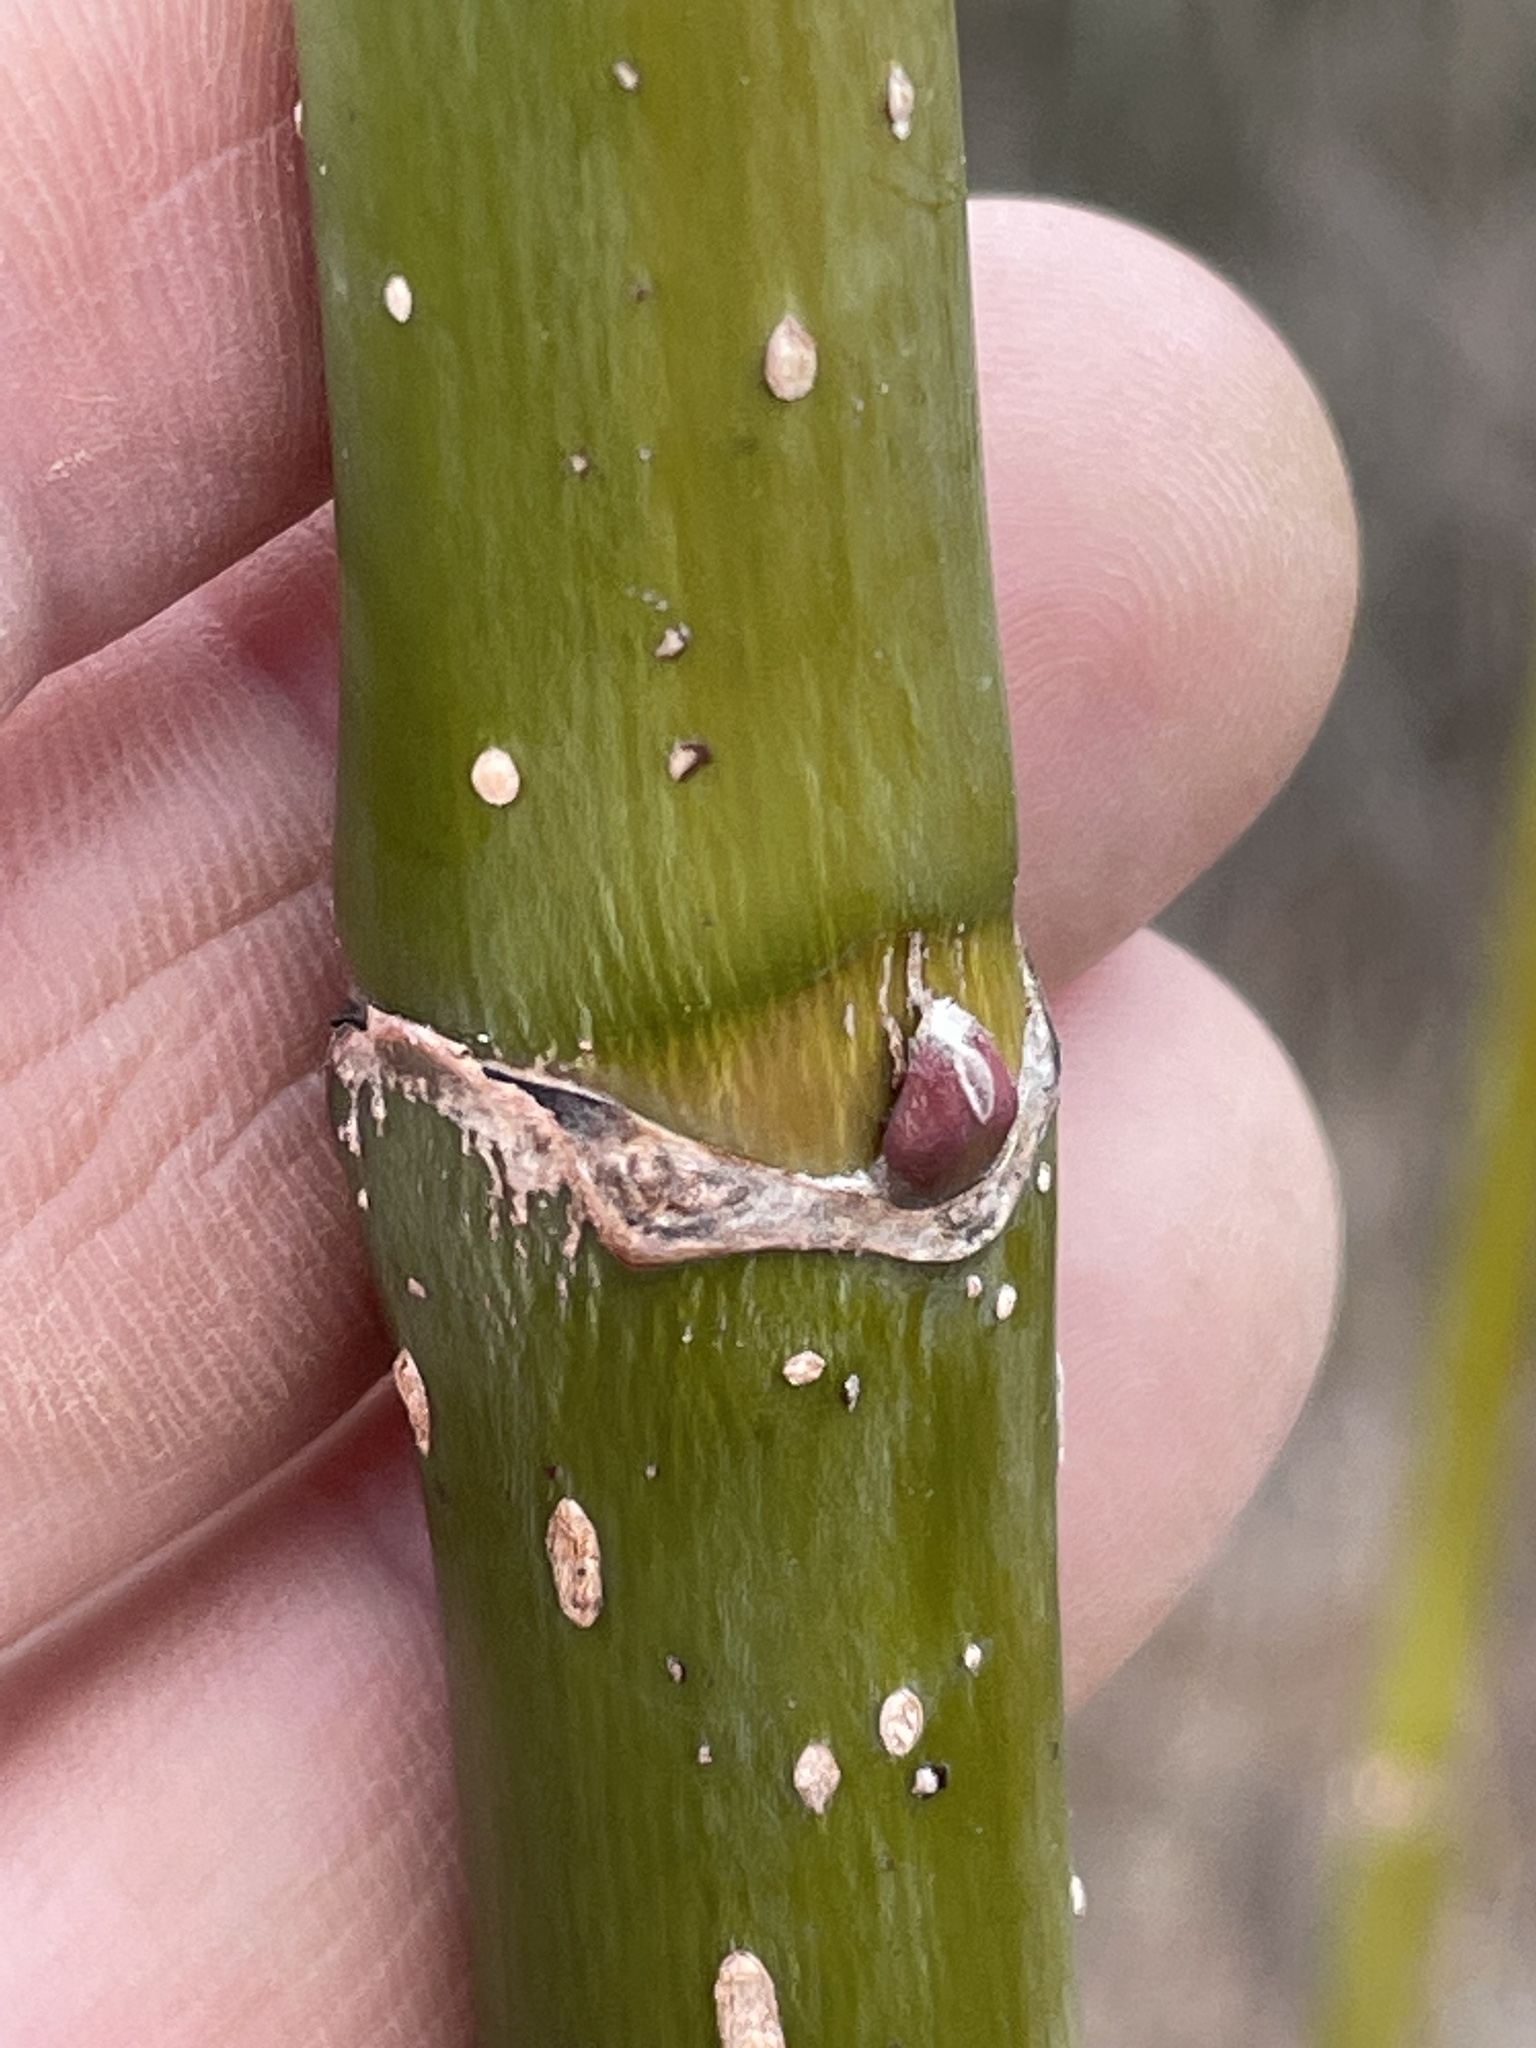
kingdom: Plantae
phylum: Tracheophyta
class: Magnoliopsida
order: Sapindales
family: Sapindaceae
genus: Acer
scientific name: Acer negundo
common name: Ashleaf maple
